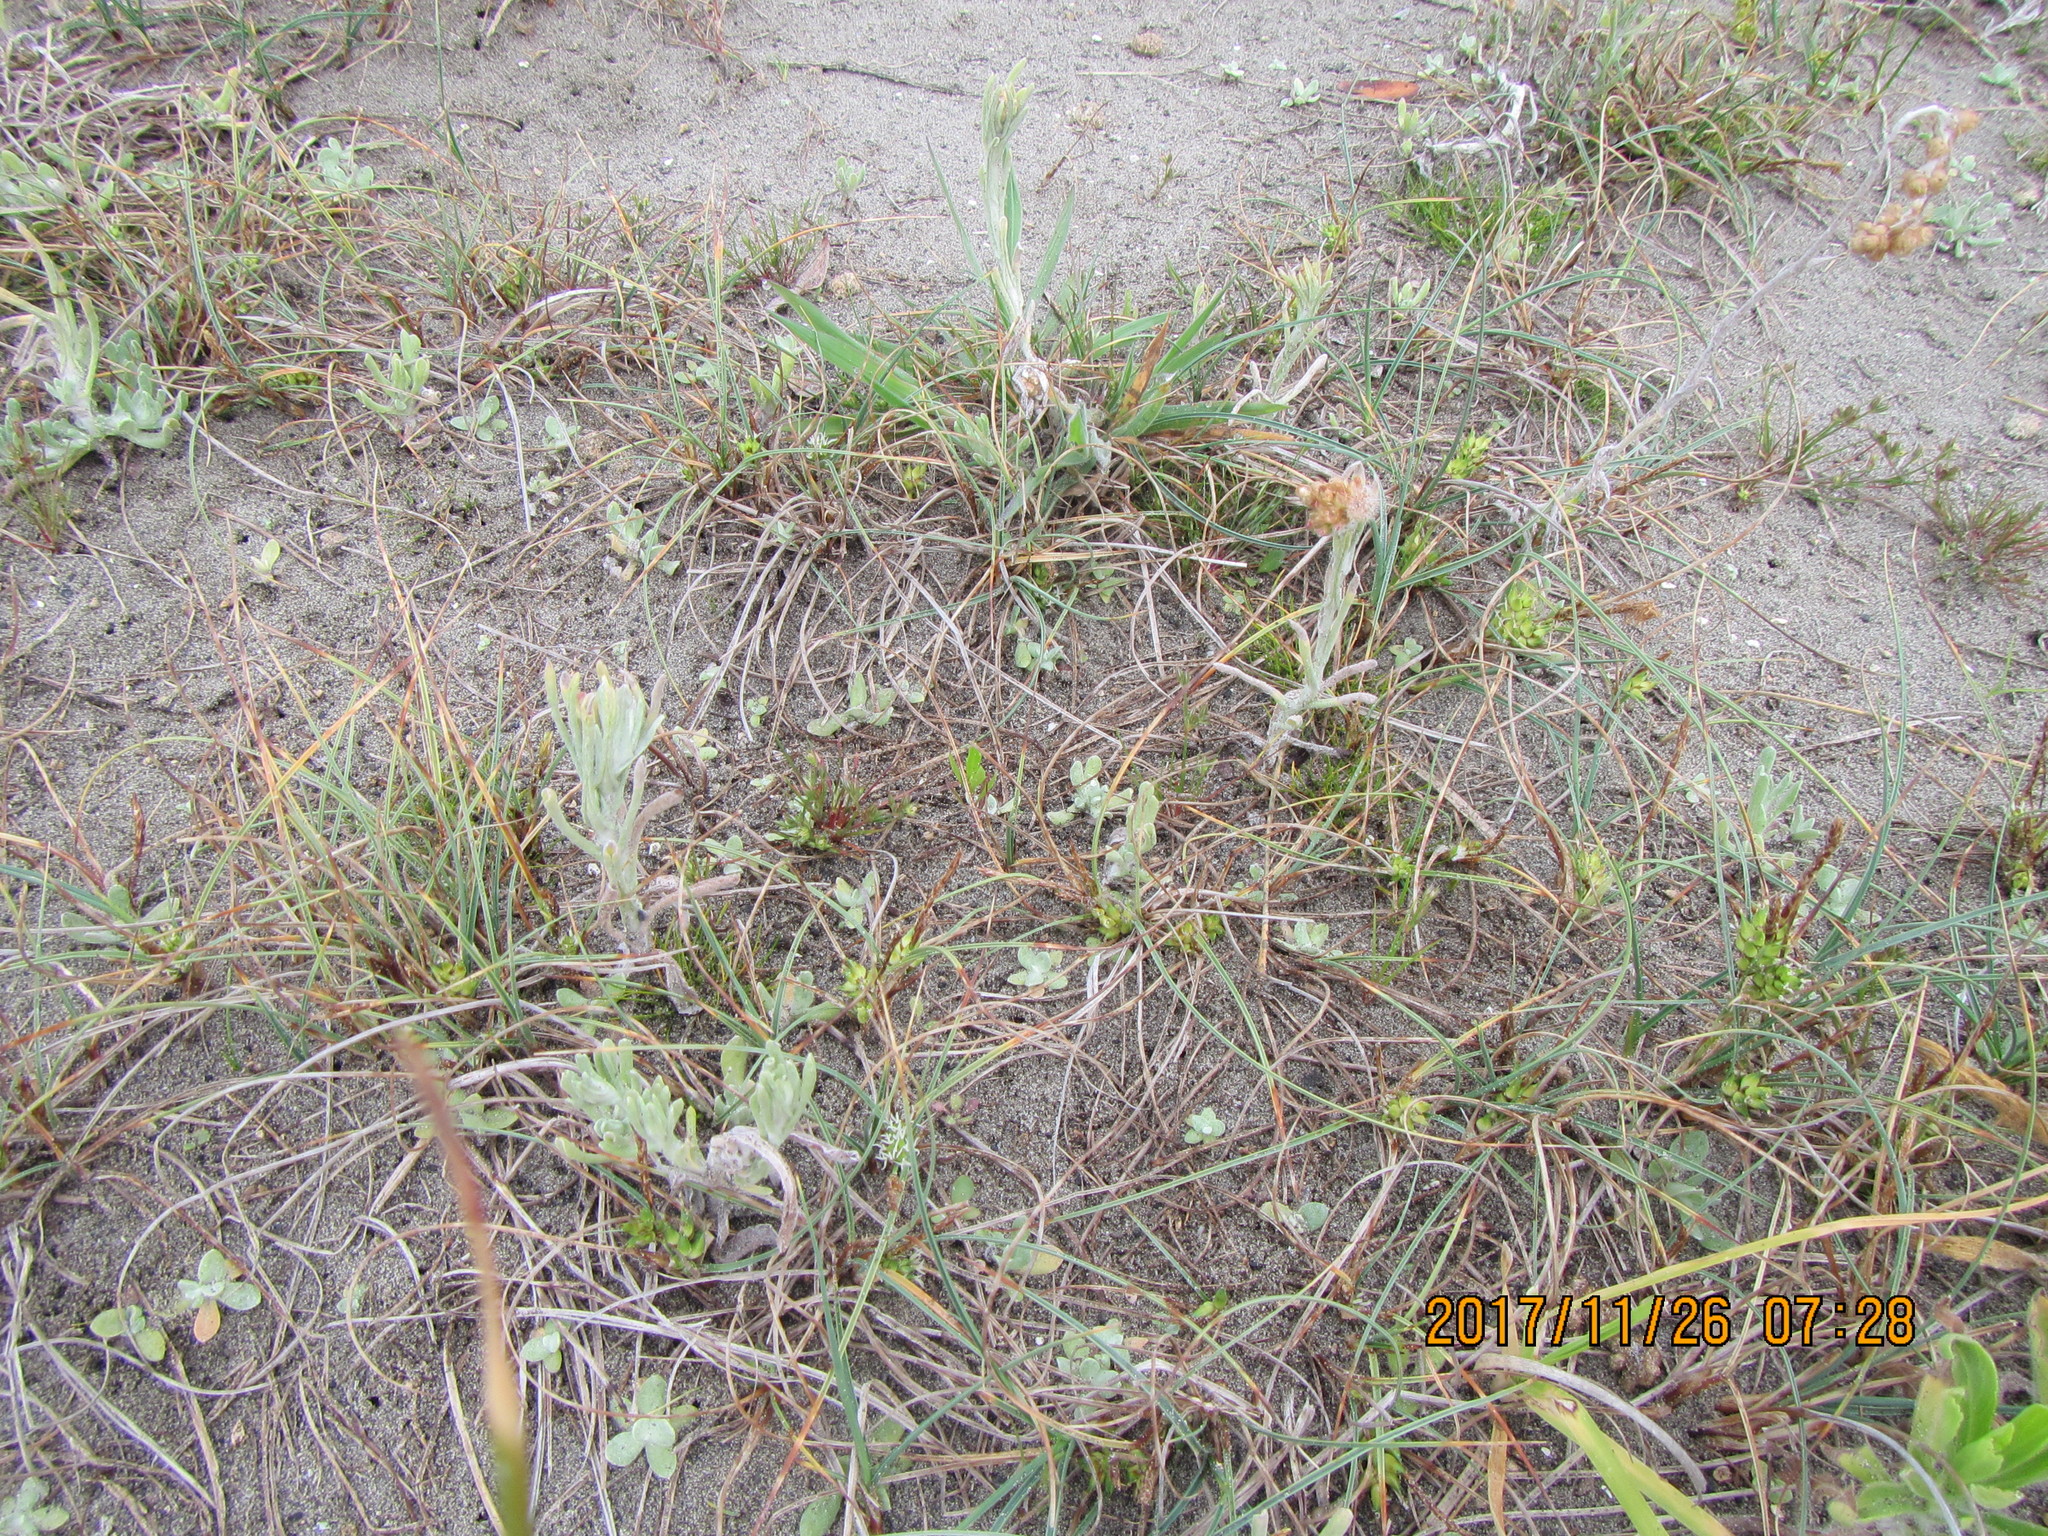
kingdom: Plantae
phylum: Tracheophyta
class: Magnoliopsida
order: Asterales
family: Asteraceae
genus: Helichrysum
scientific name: Helichrysum luteoalbum
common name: Daisy
